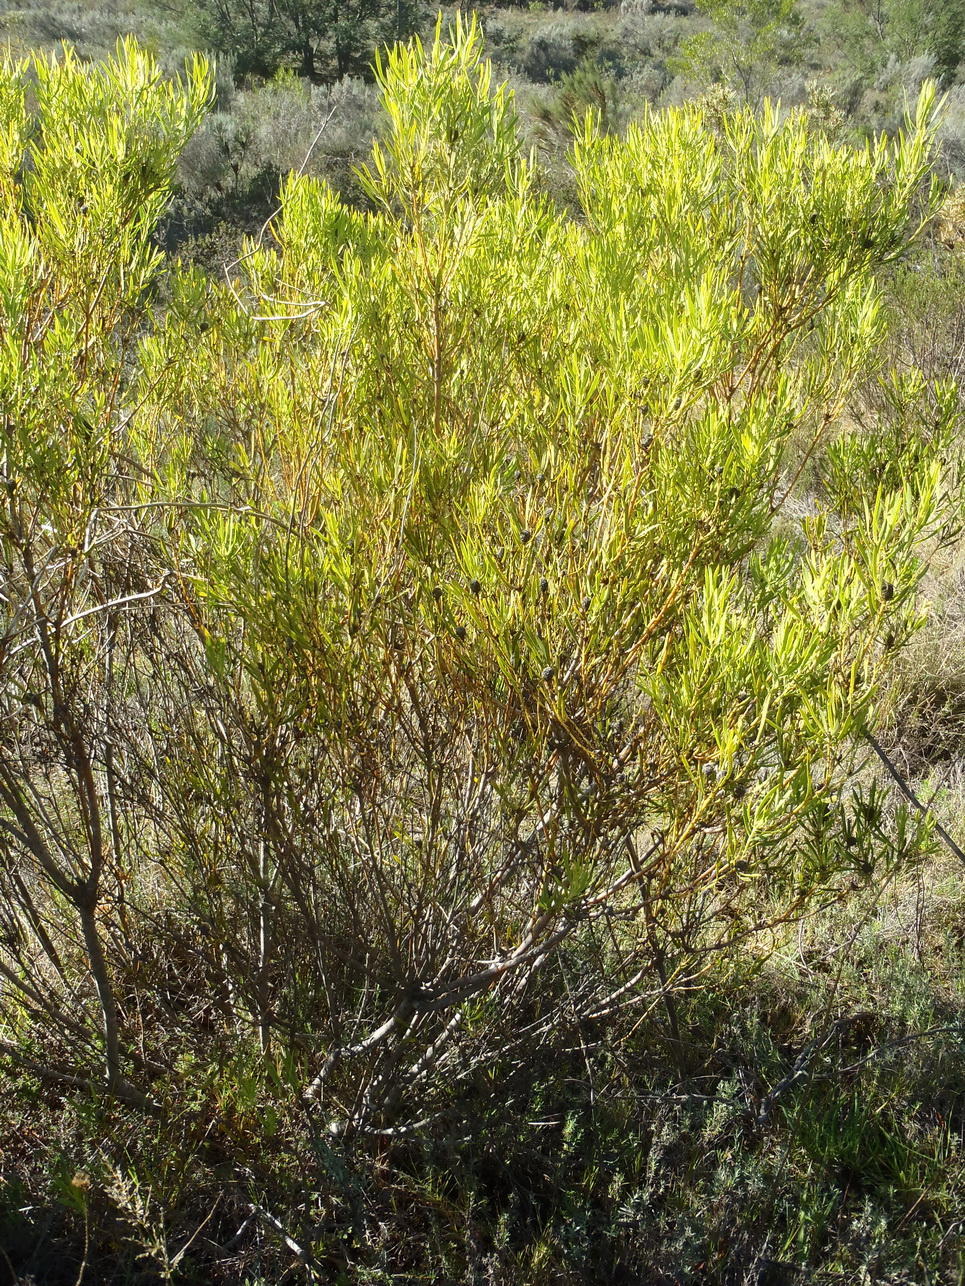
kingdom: Plantae
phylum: Tracheophyta
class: Magnoliopsida
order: Proteales
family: Proteaceae
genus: Leucadendron
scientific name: Leucadendron salignum
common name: Common sunshine conebush
